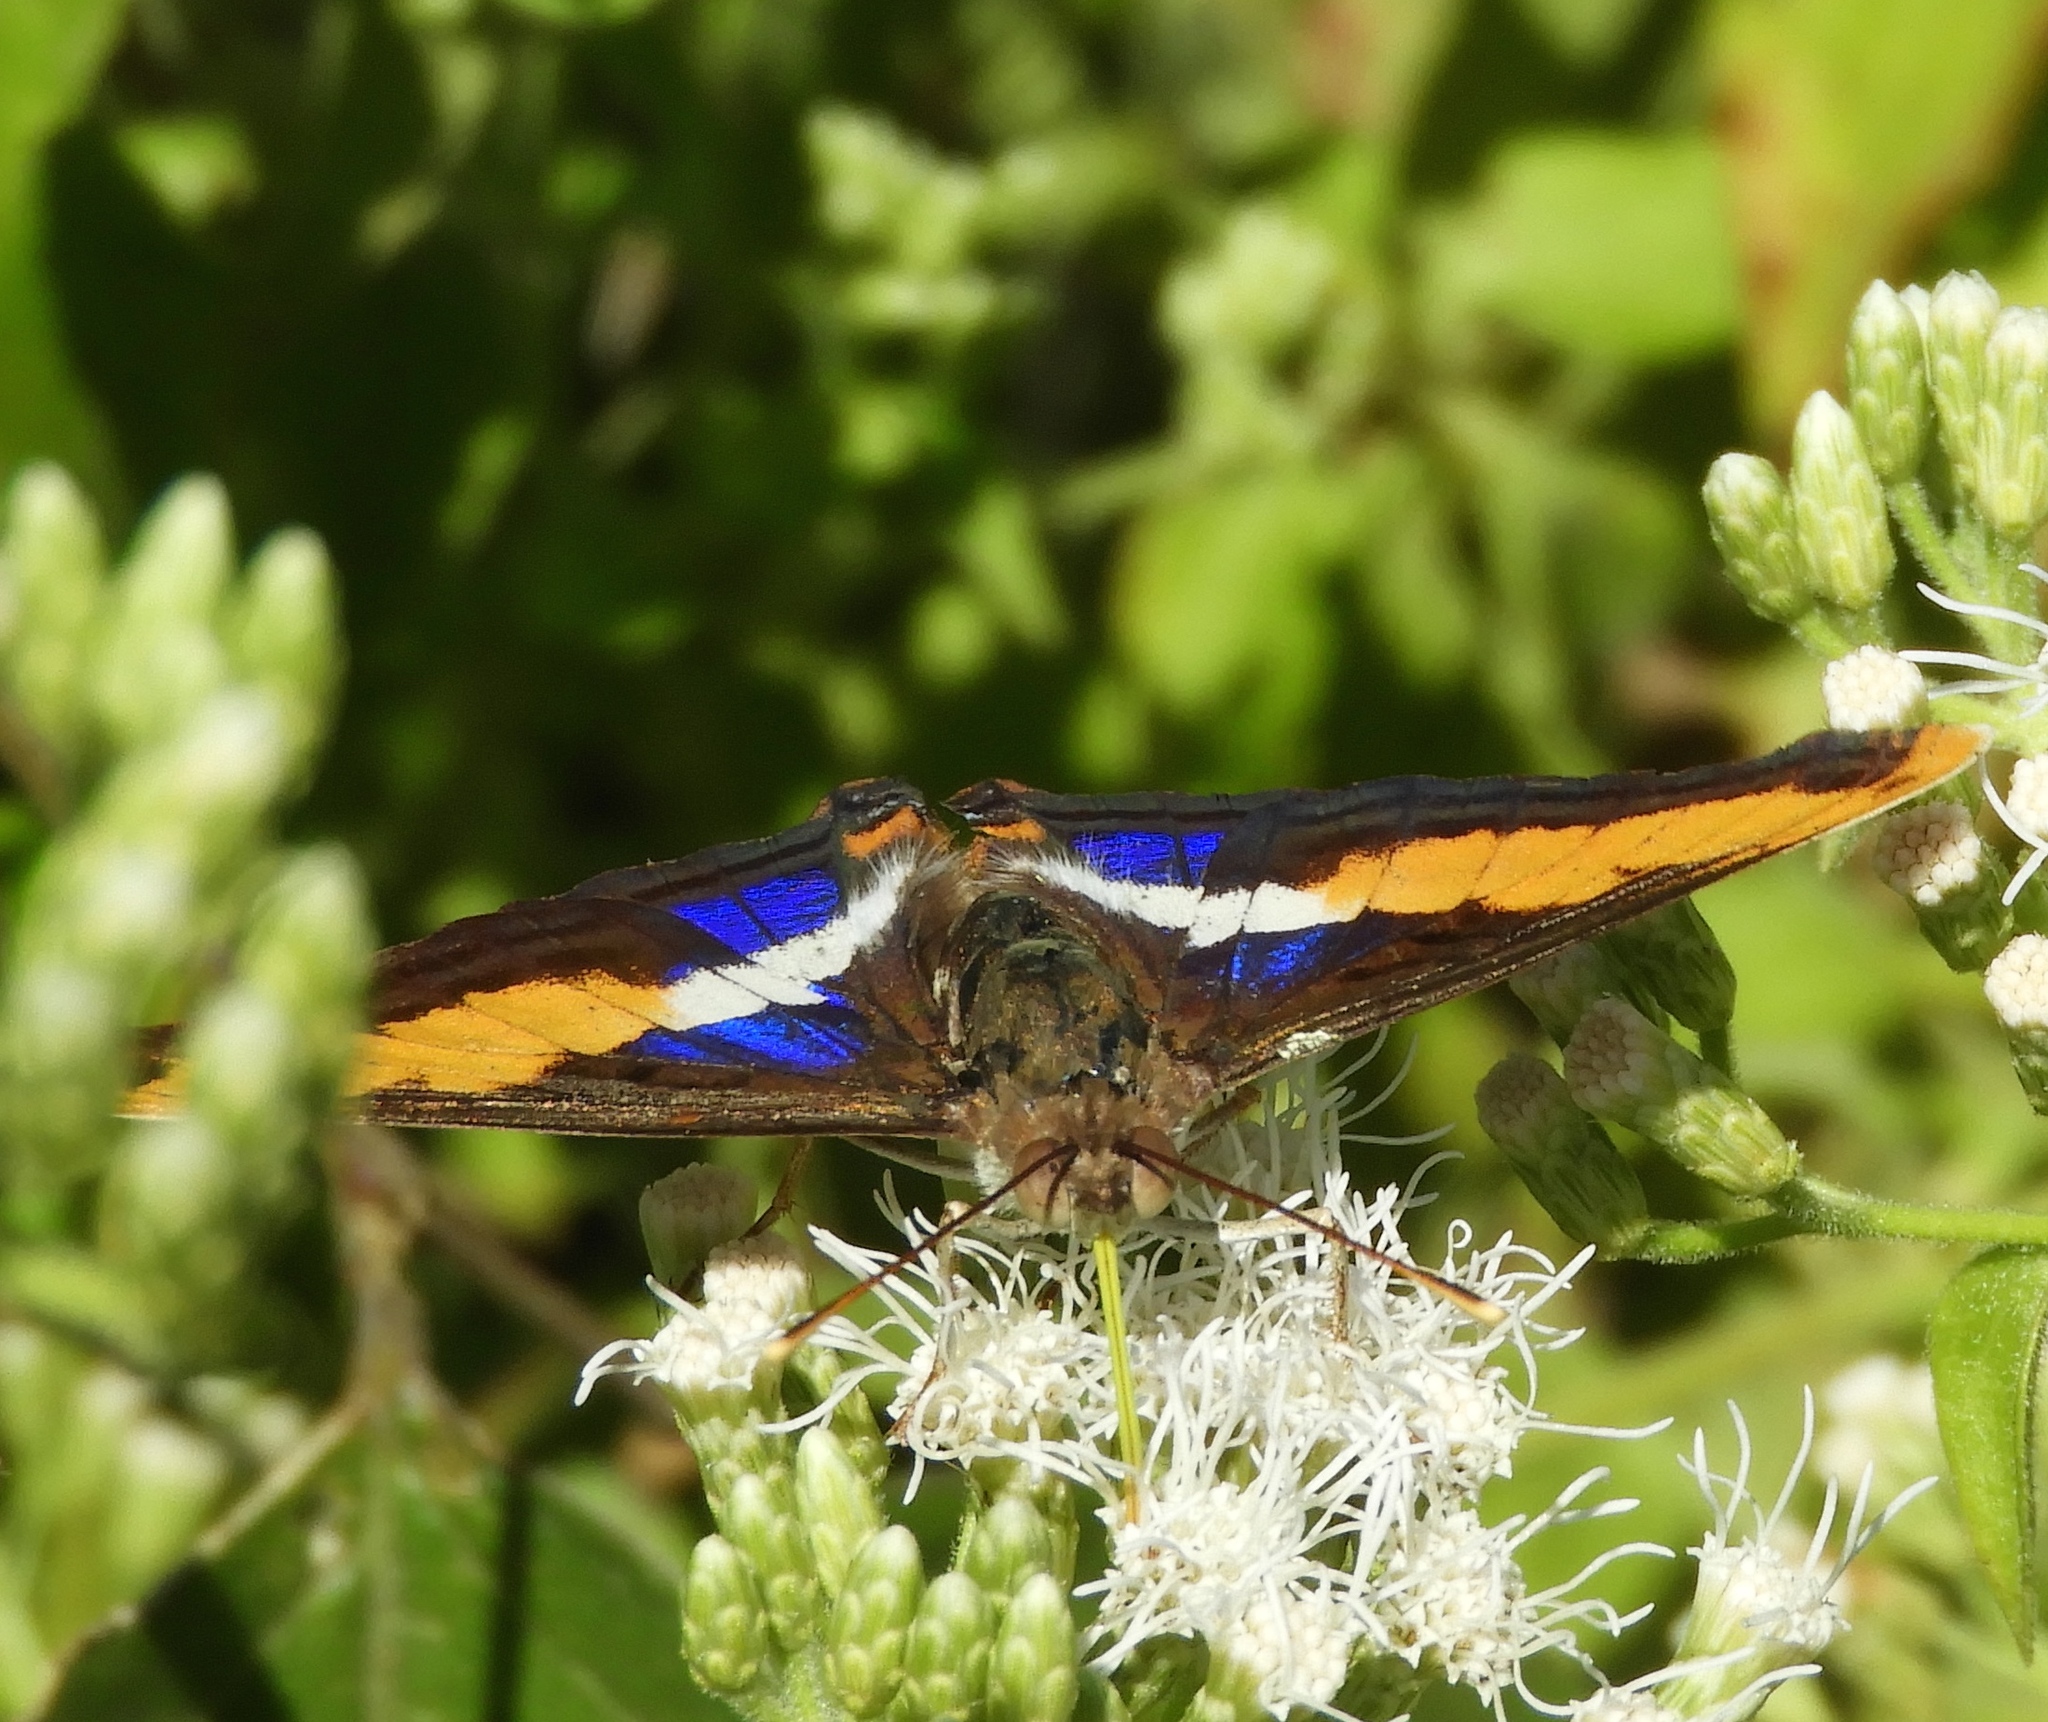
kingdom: Animalia
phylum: Arthropoda
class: Insecta
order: Lepidoptera
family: Nymphalidae
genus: Doxocopa
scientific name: Doxocopa laure
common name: Silver emperor
